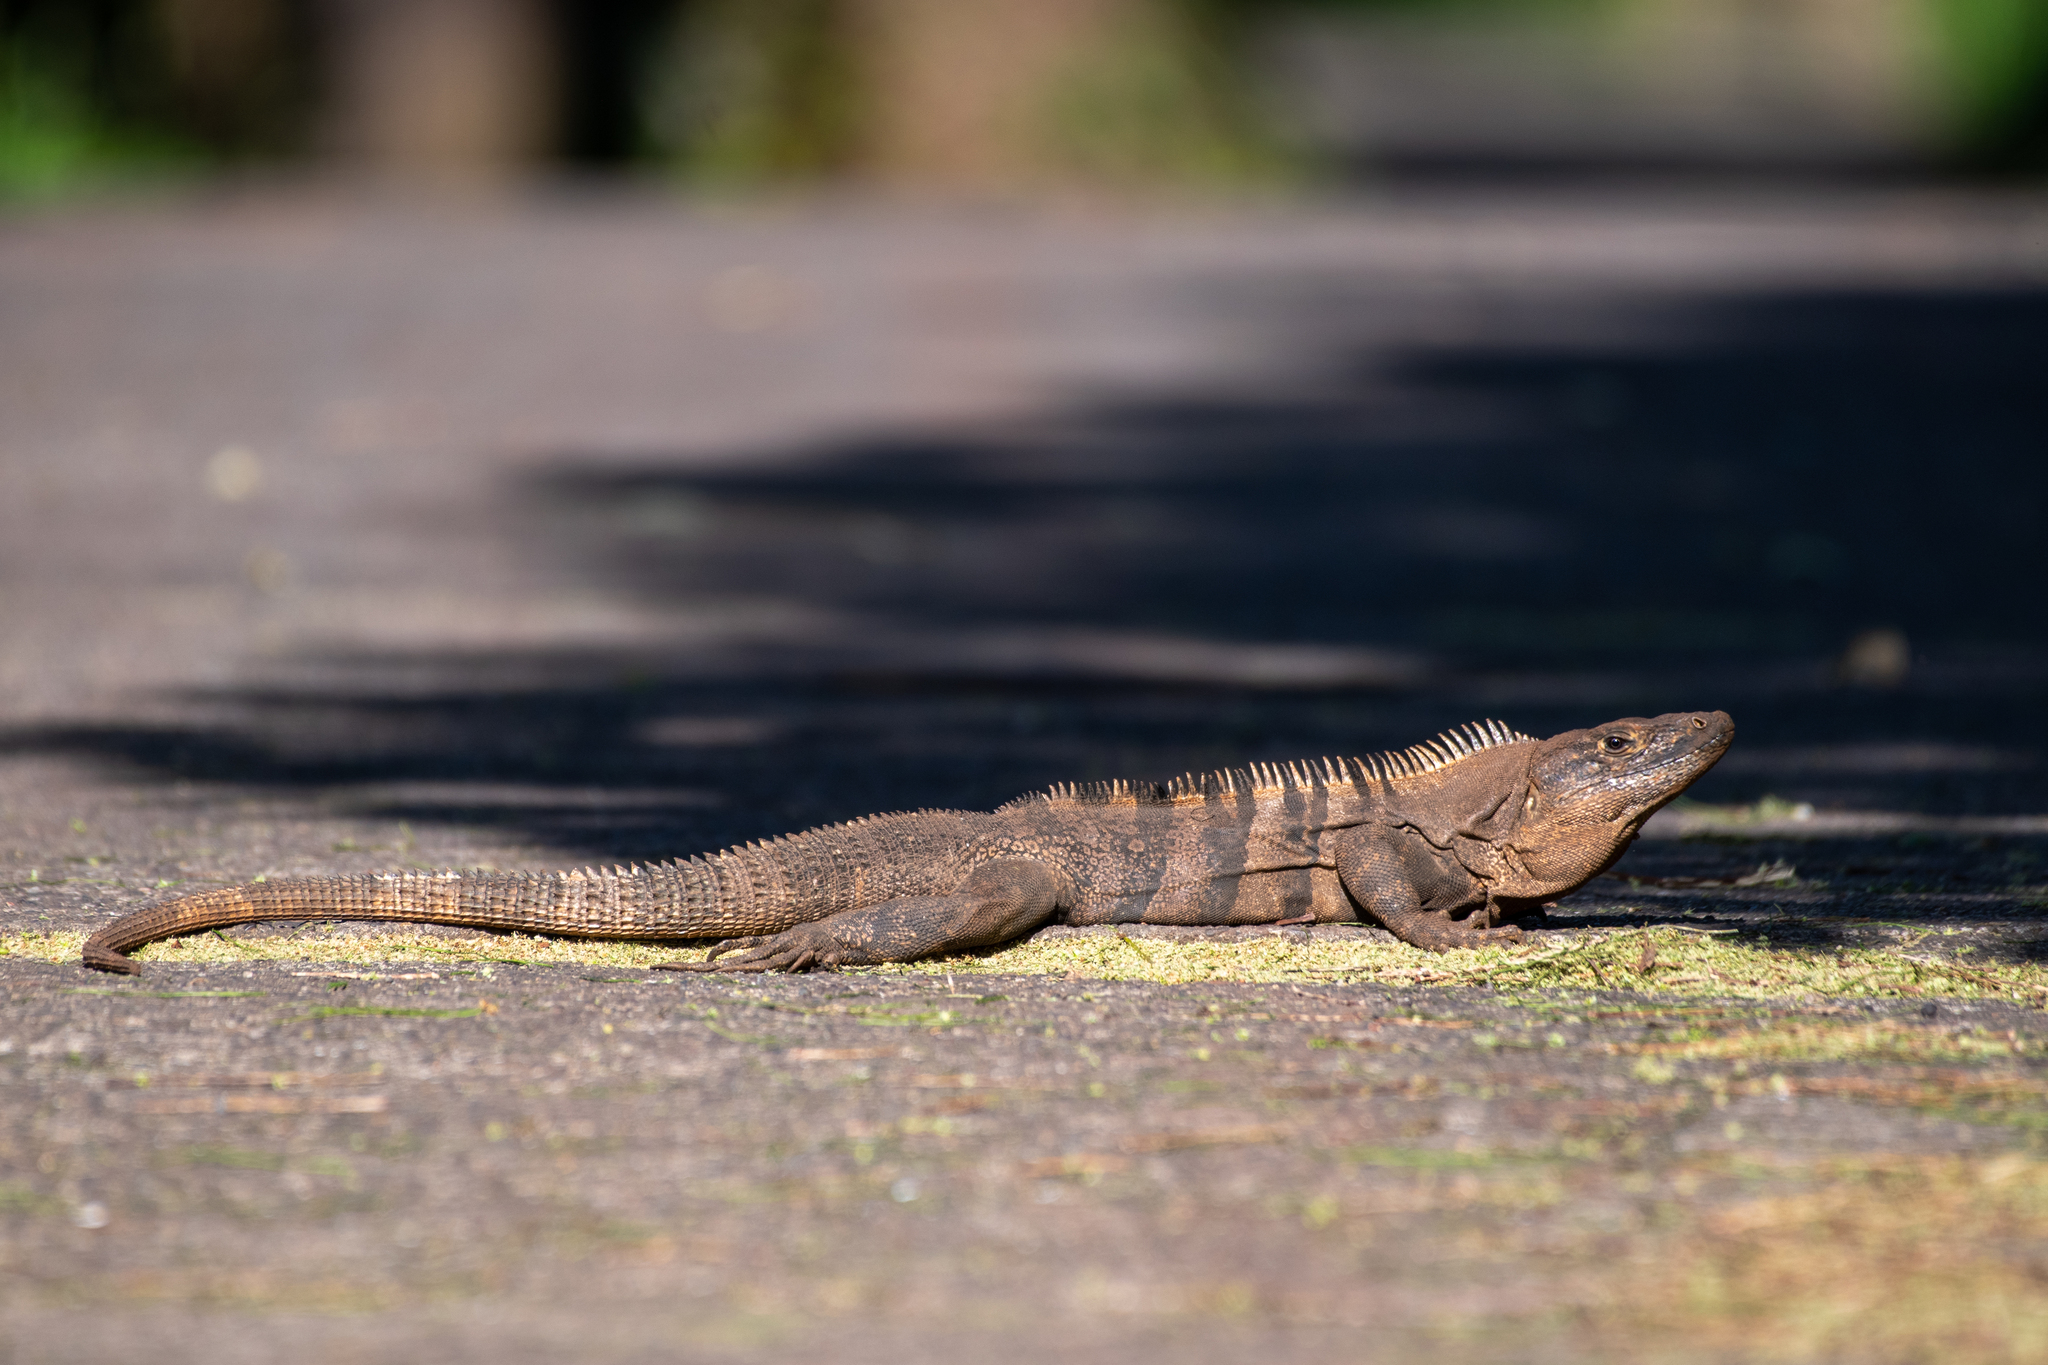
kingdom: Animalia
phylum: Chordata
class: Squamata
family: Iguanidae
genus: Ctenosaura
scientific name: Ctenosaura similis
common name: Black spiny-tailed iguana
